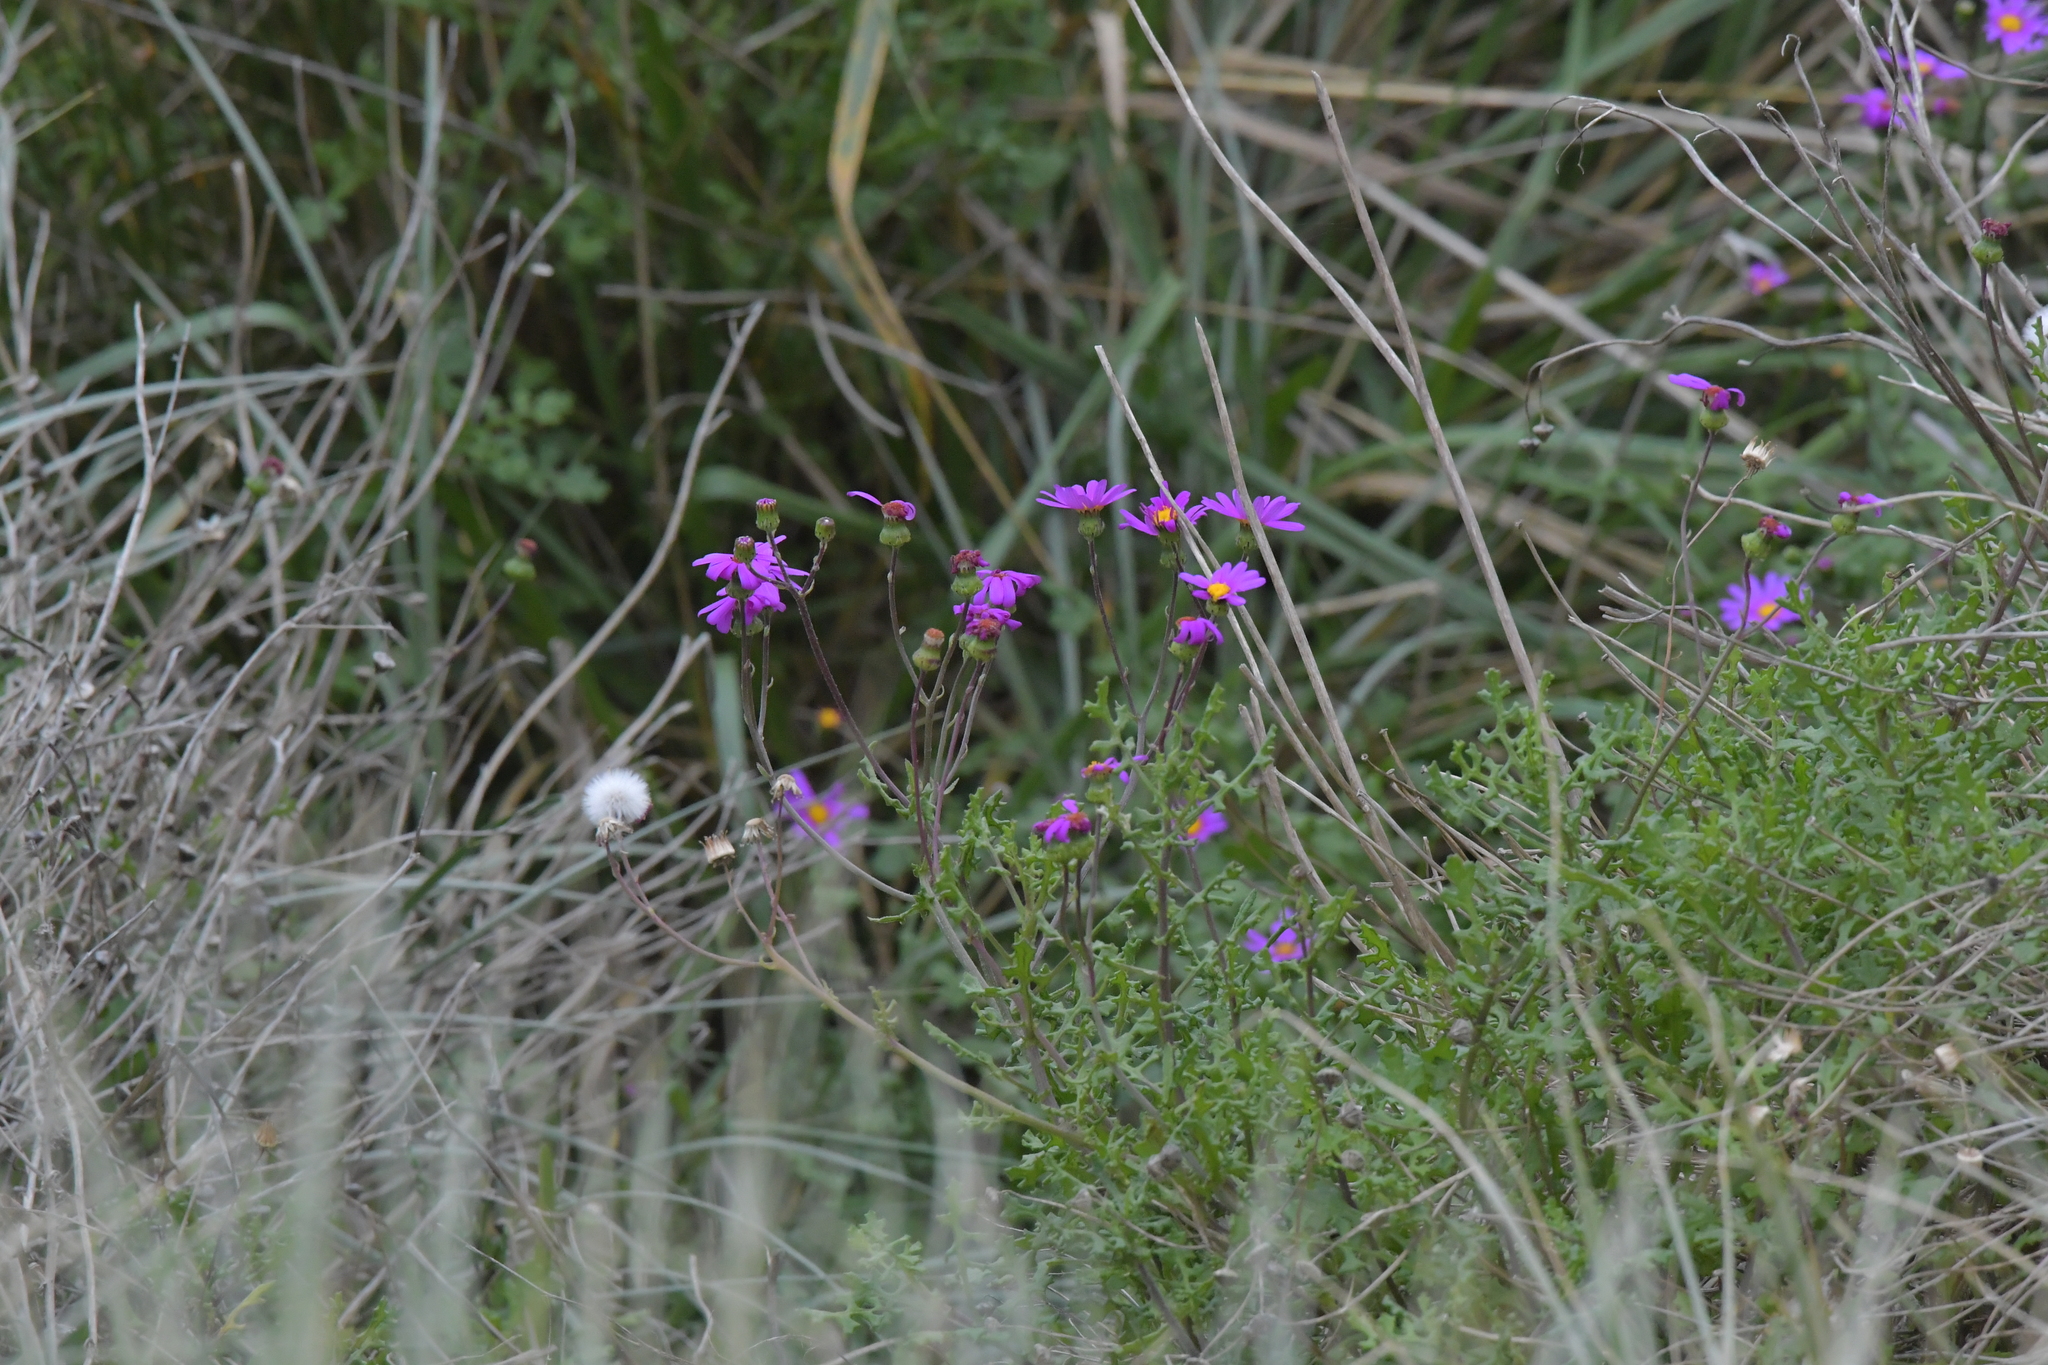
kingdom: Plantae
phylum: Tracheophyta
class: Magnoliopsida
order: Asterales
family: Asteraceae
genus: Senecio
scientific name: Senecio elegans
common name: Purple groundsel
